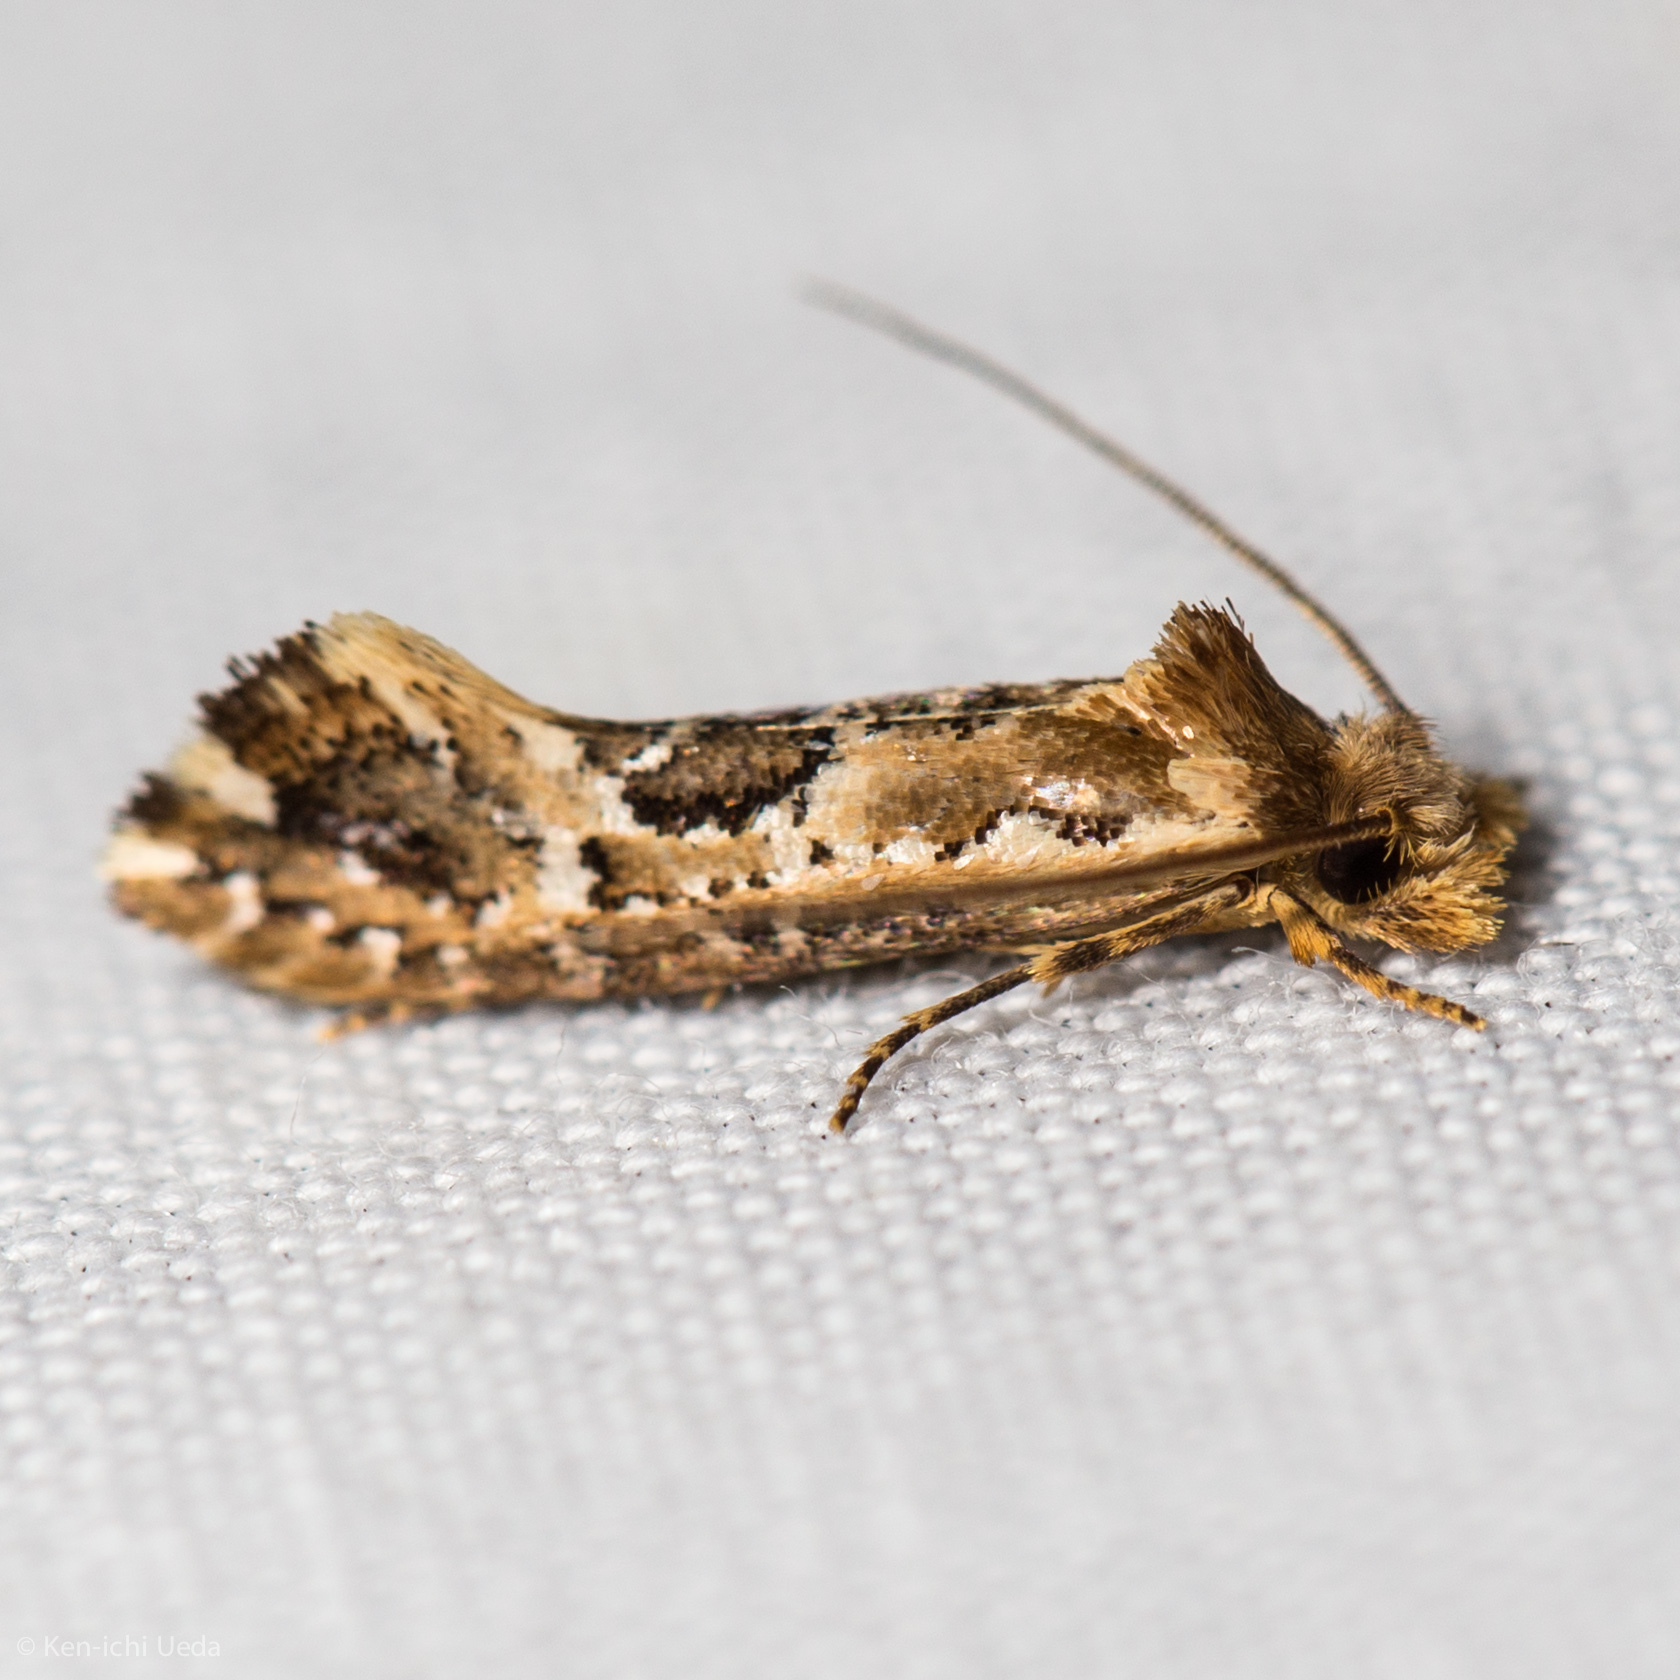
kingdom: Animalia
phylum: Arthropoda
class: Insecta
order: Lepidoptera
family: Tineidae
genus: Moerarchis
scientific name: Moerarchis inconcisella
